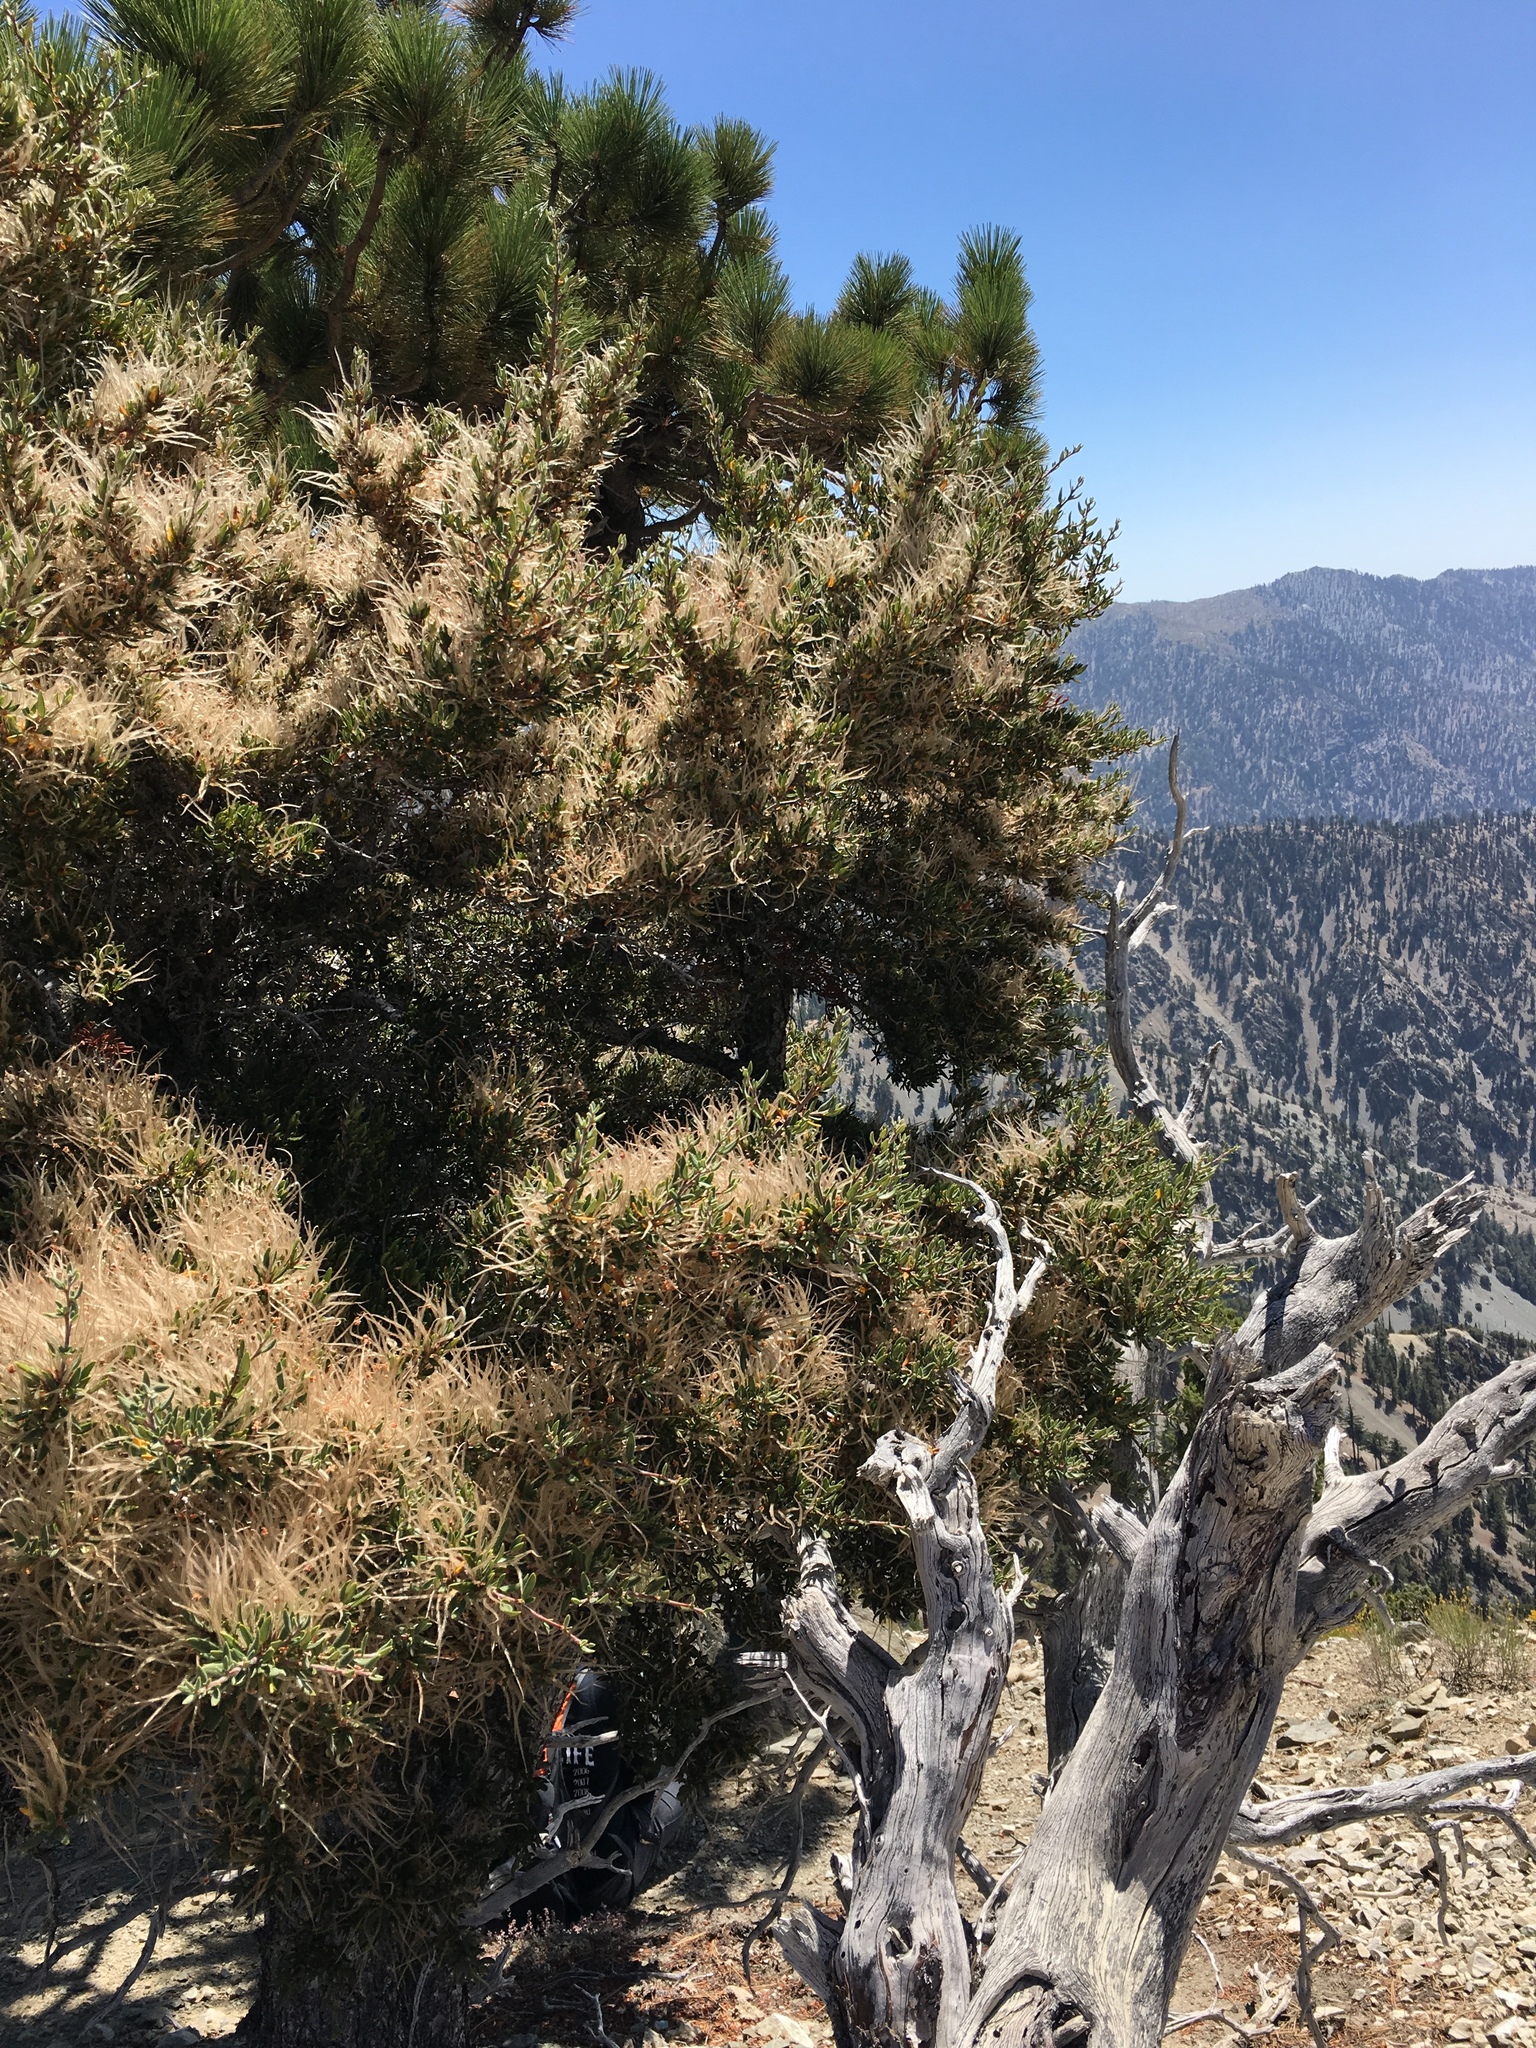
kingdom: Plantae
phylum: Tracheophyta
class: Magnoliopsida
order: Rosales
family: Rosaceae
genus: Cercocarpus
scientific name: Cercocarpus
